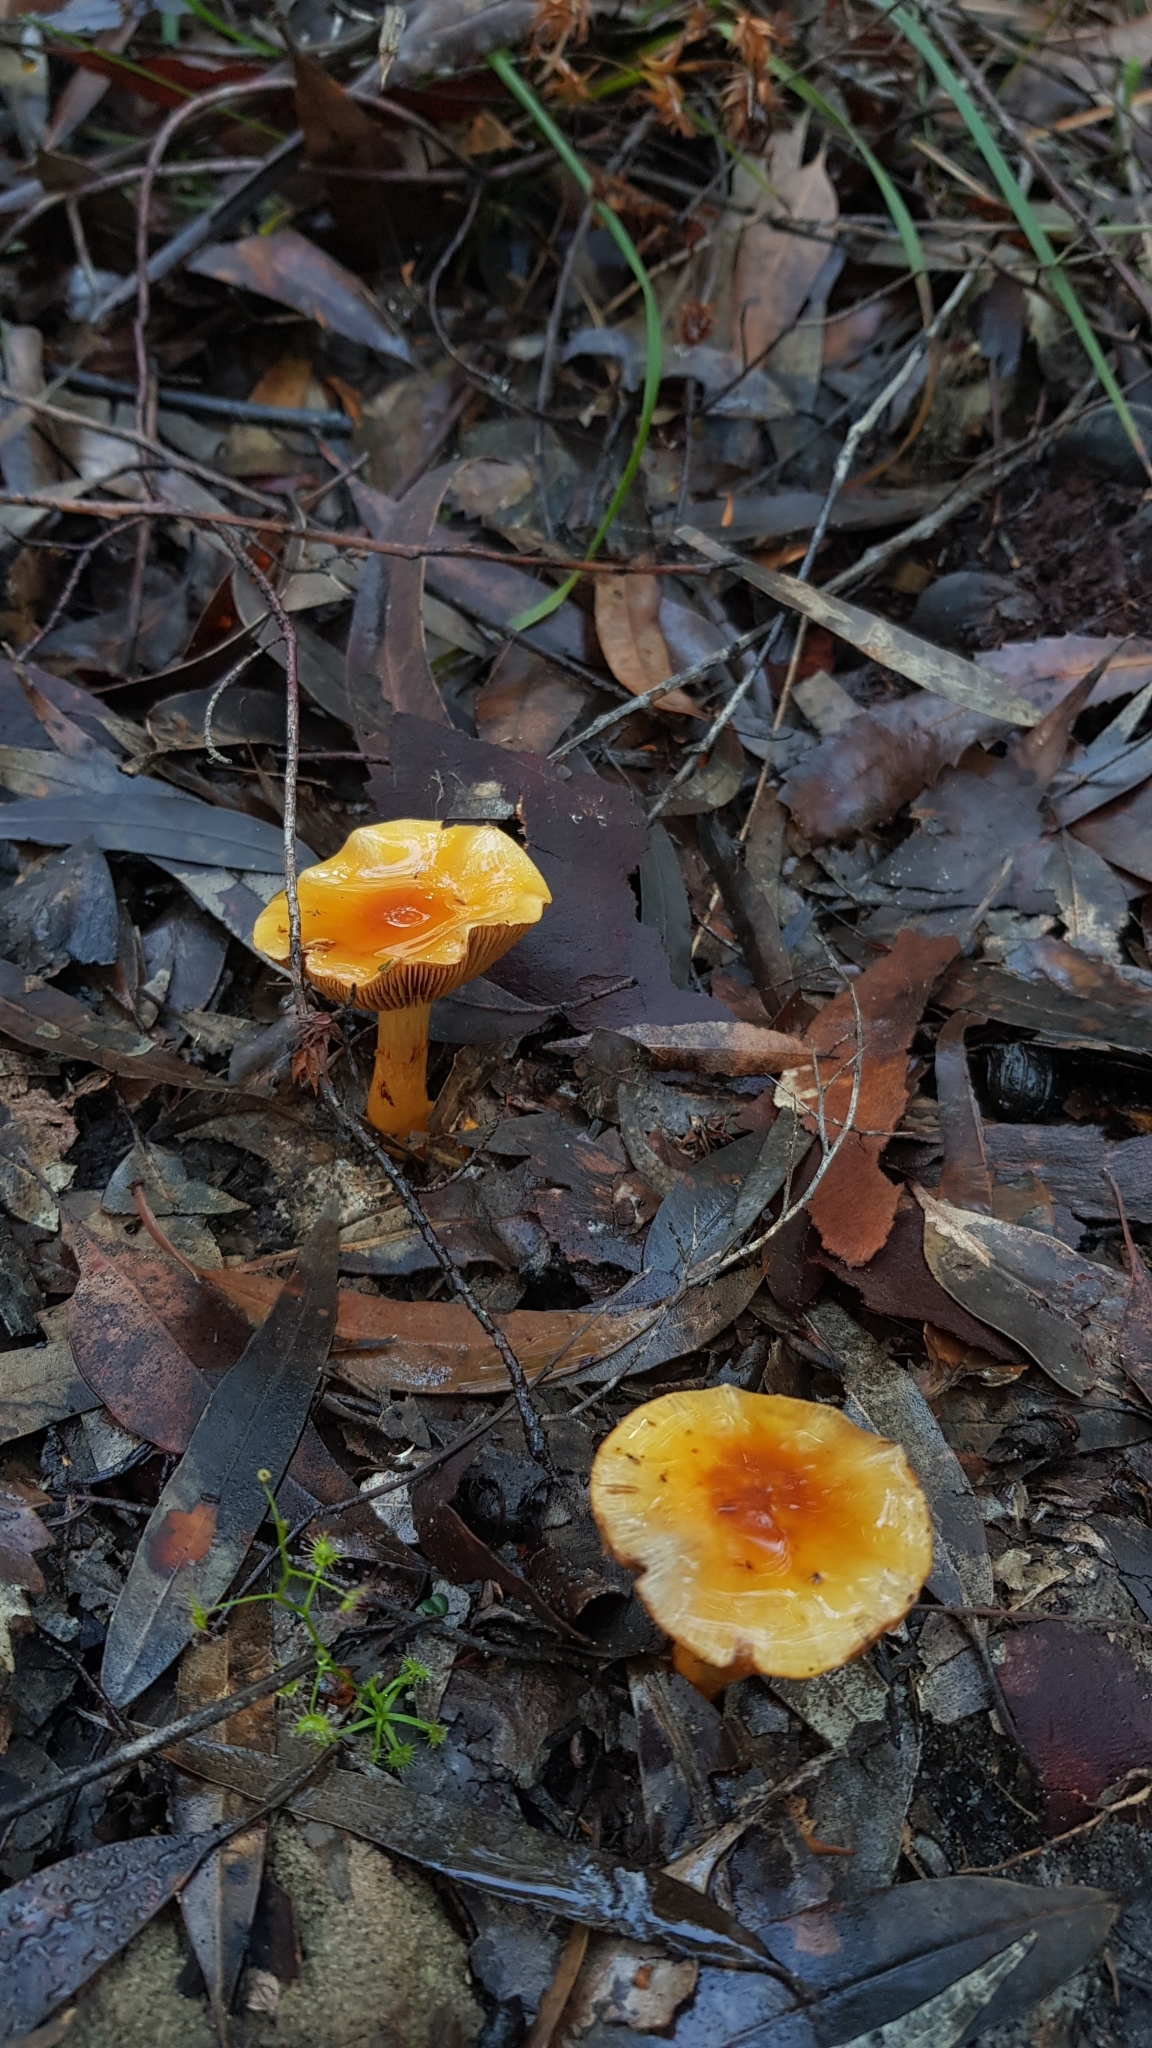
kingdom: Fungi
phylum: Basidiomycota
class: Agaricomycetes
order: Agaricales
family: Cortinariaceae
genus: Cortinarius
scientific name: Cortinarius sinapicolor
